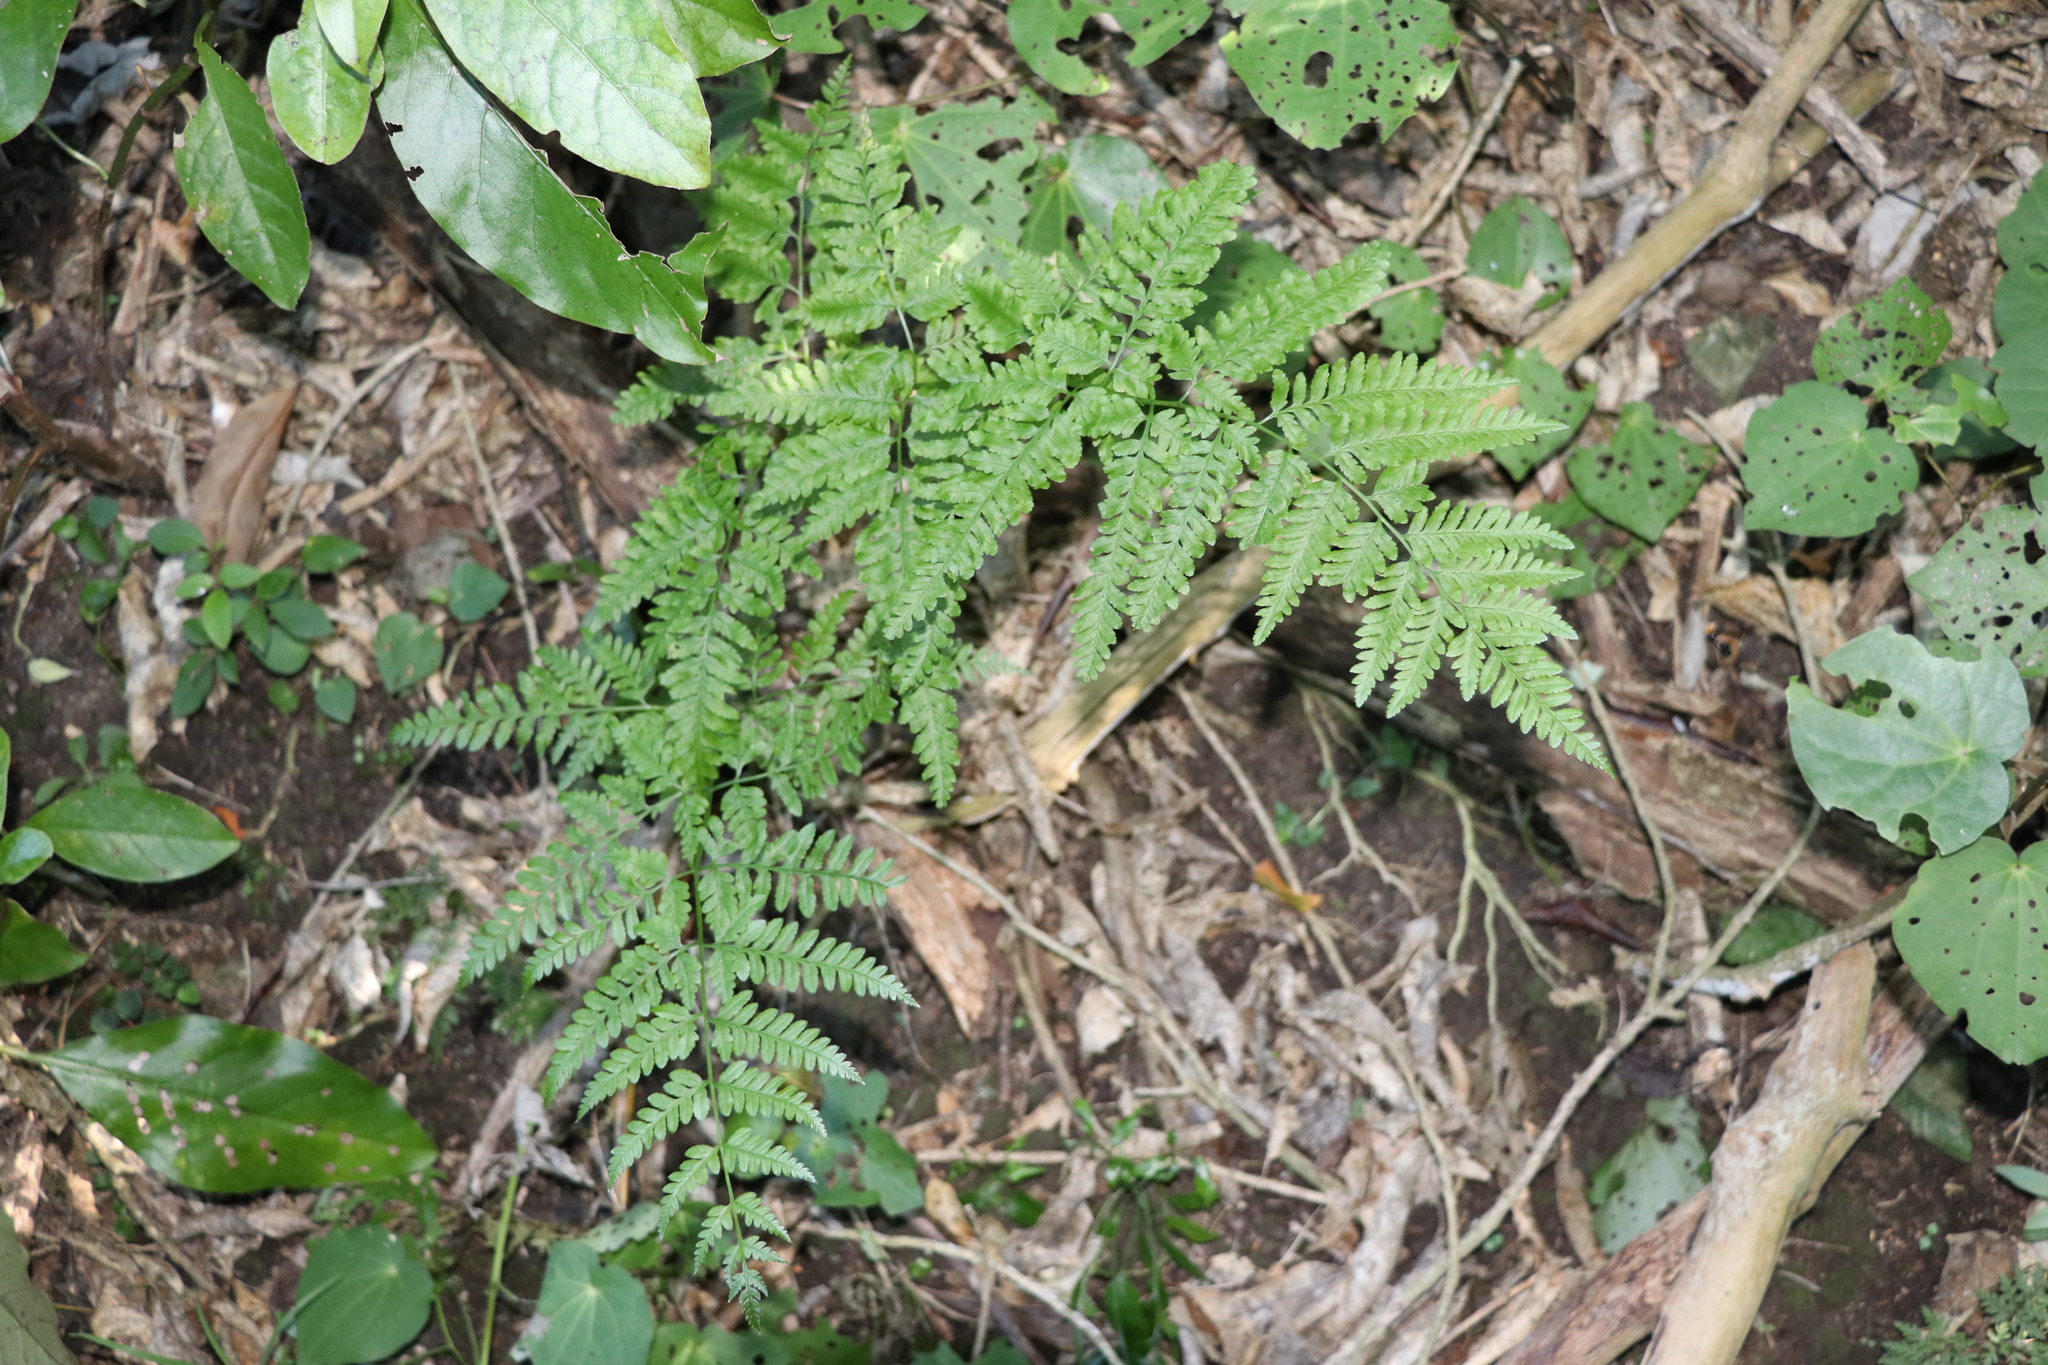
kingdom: Plantae
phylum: Tracheophyta
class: Polypodiopsida
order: Polypodiales
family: Pteridaceae
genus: Pteris
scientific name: Pteris tremula
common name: Australian brake
